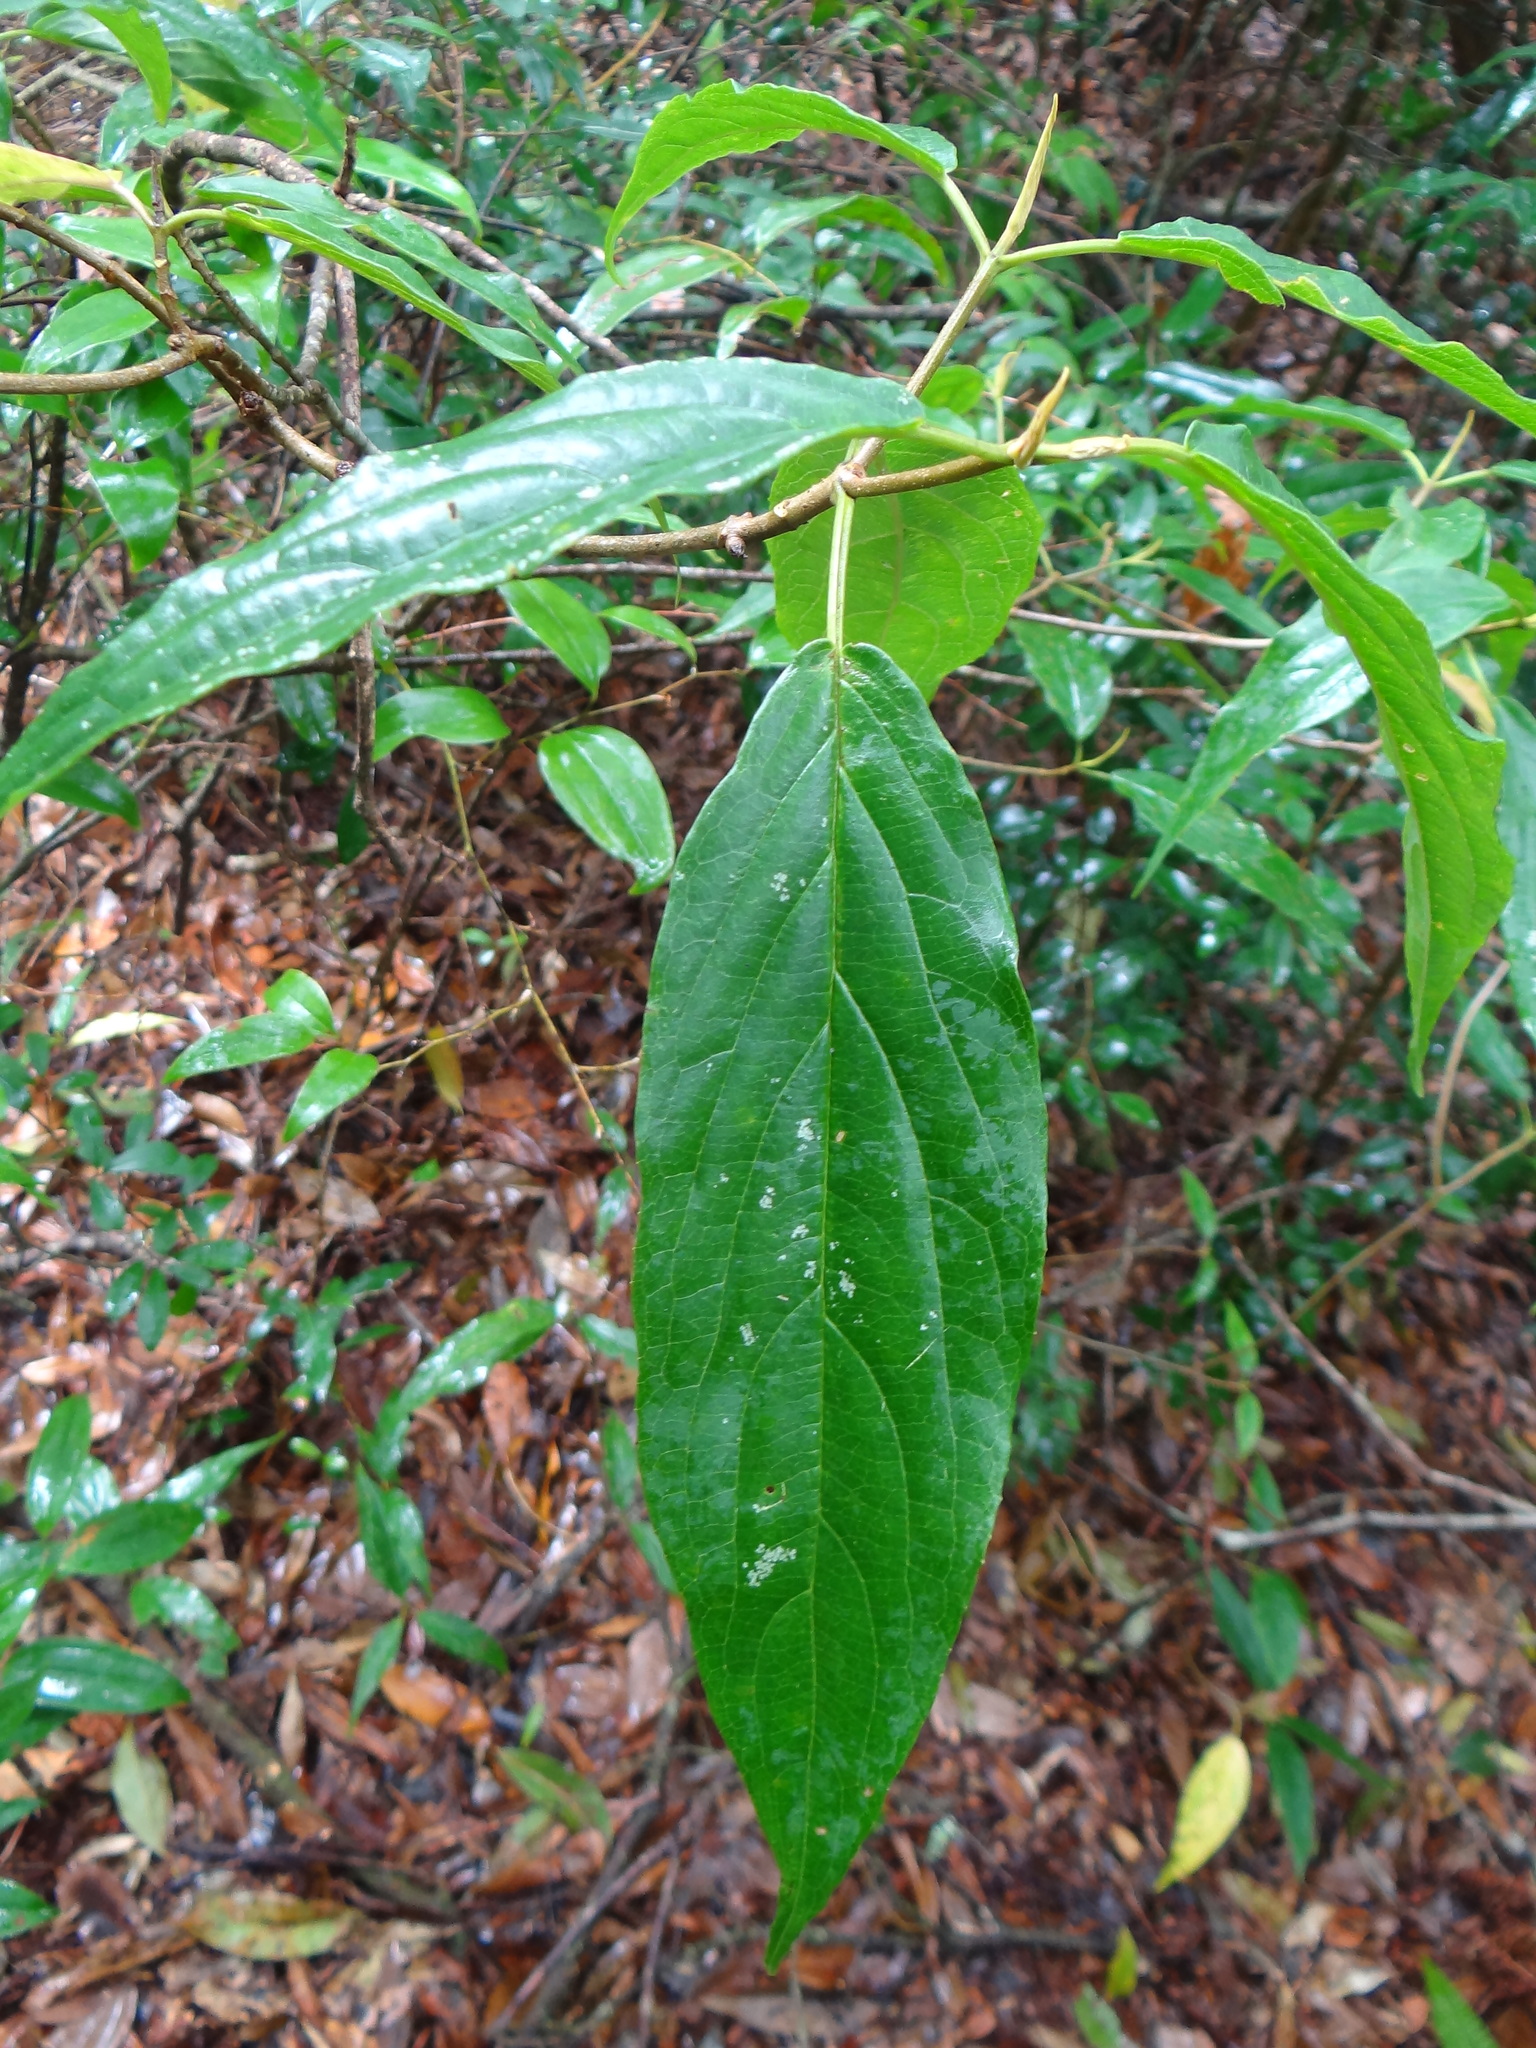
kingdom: Plantae
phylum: Tracheophyta
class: Magnoliopsida
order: Dipsacales
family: Viburnaceae
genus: Viburnum
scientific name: Viburnum urceolatum
